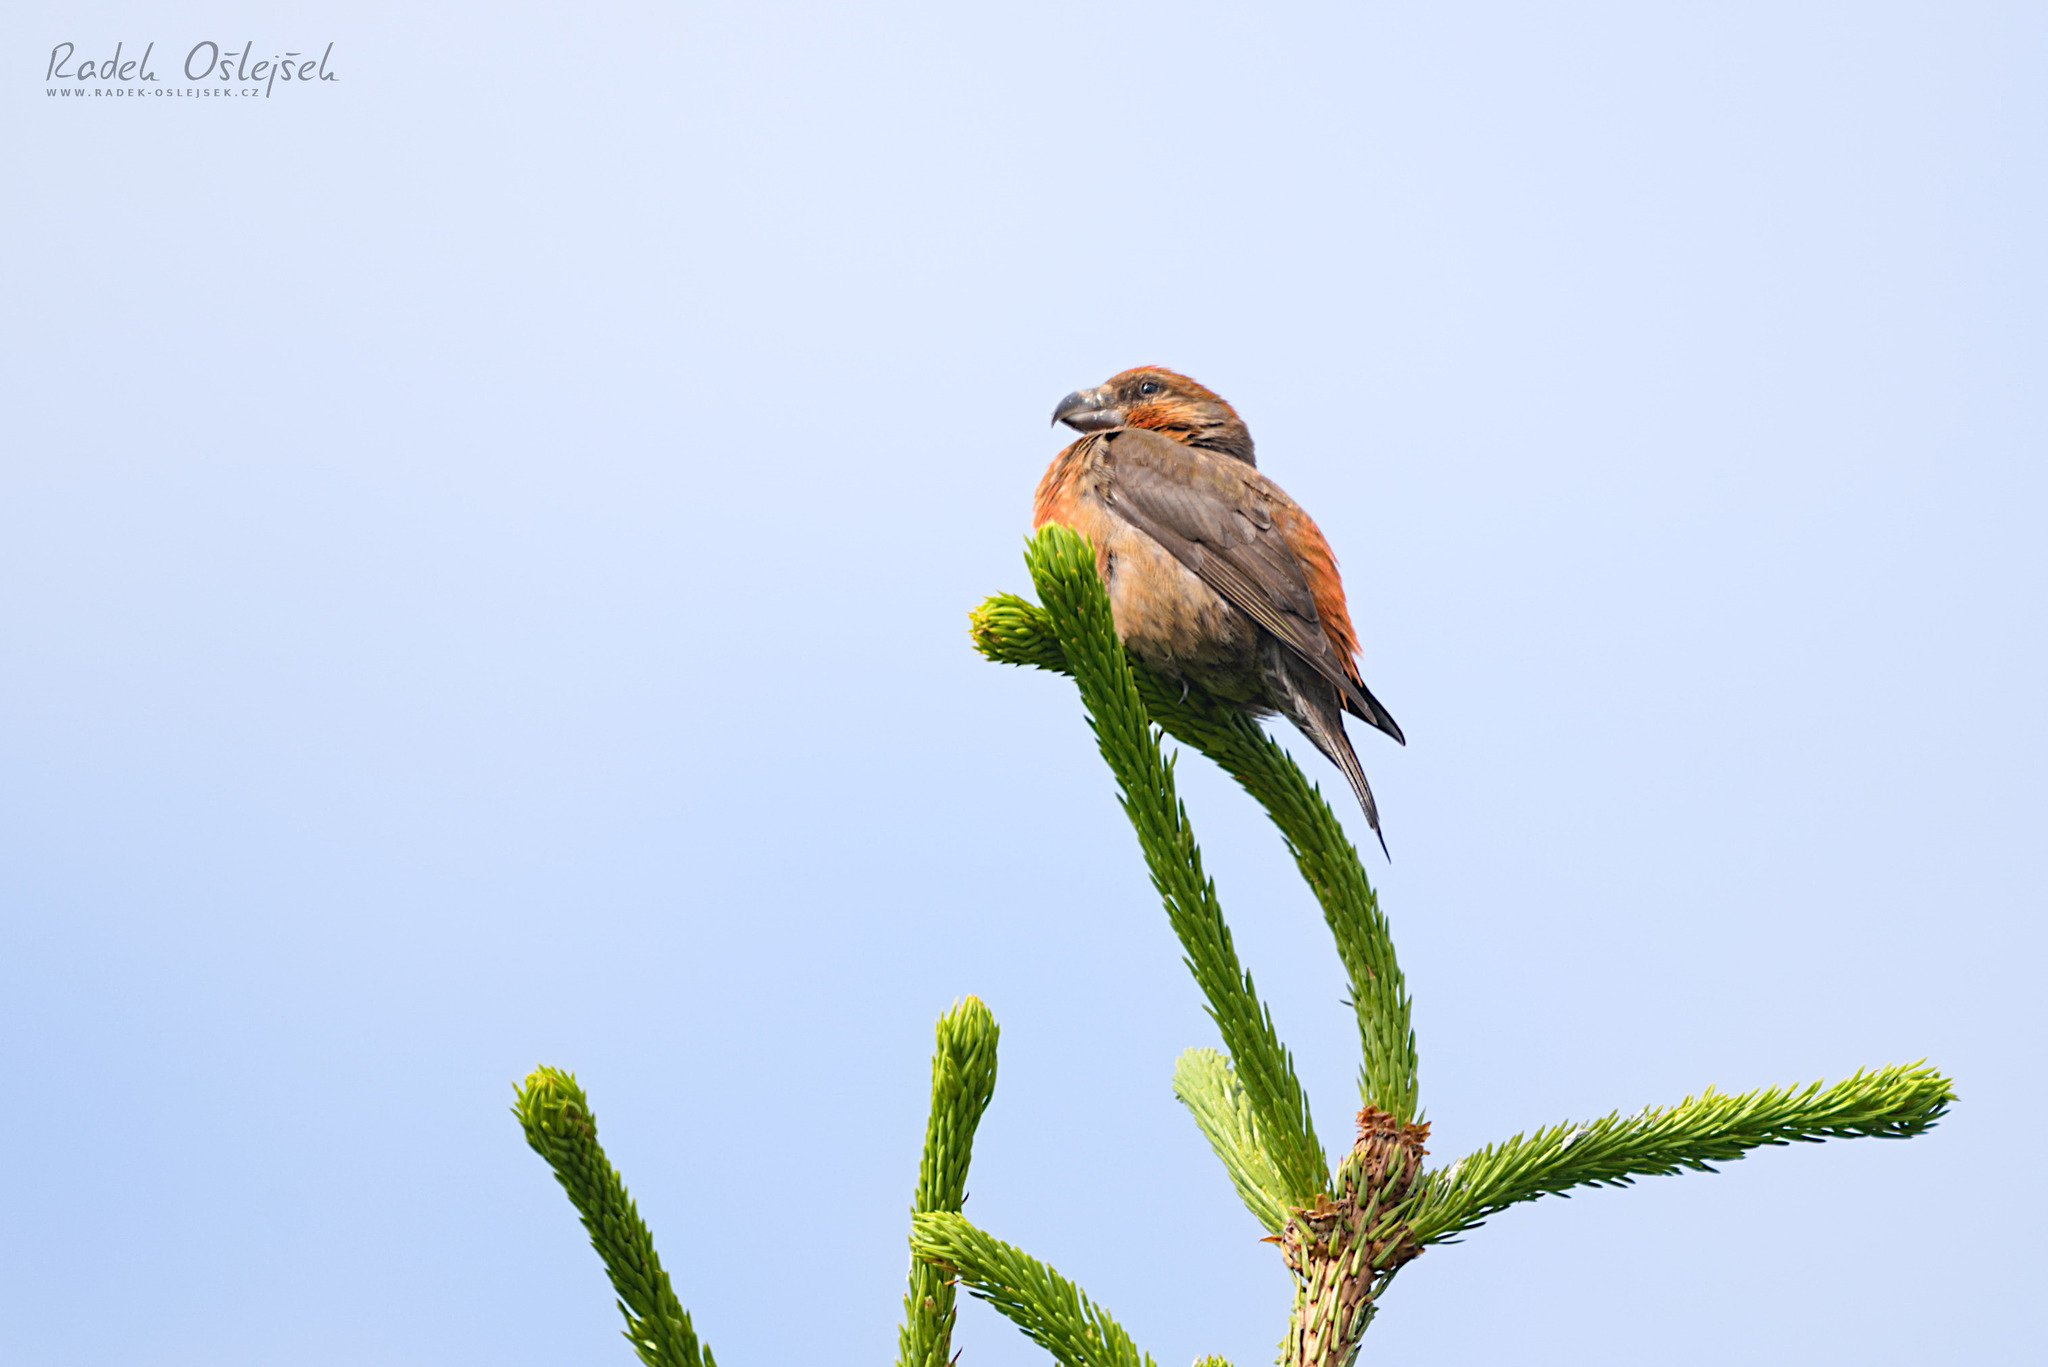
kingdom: Animalia
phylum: Chordata
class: Aves
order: Passeriformes
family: Fringillidae
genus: Loxia
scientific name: Loxia curvirostra
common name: Red crossbill
